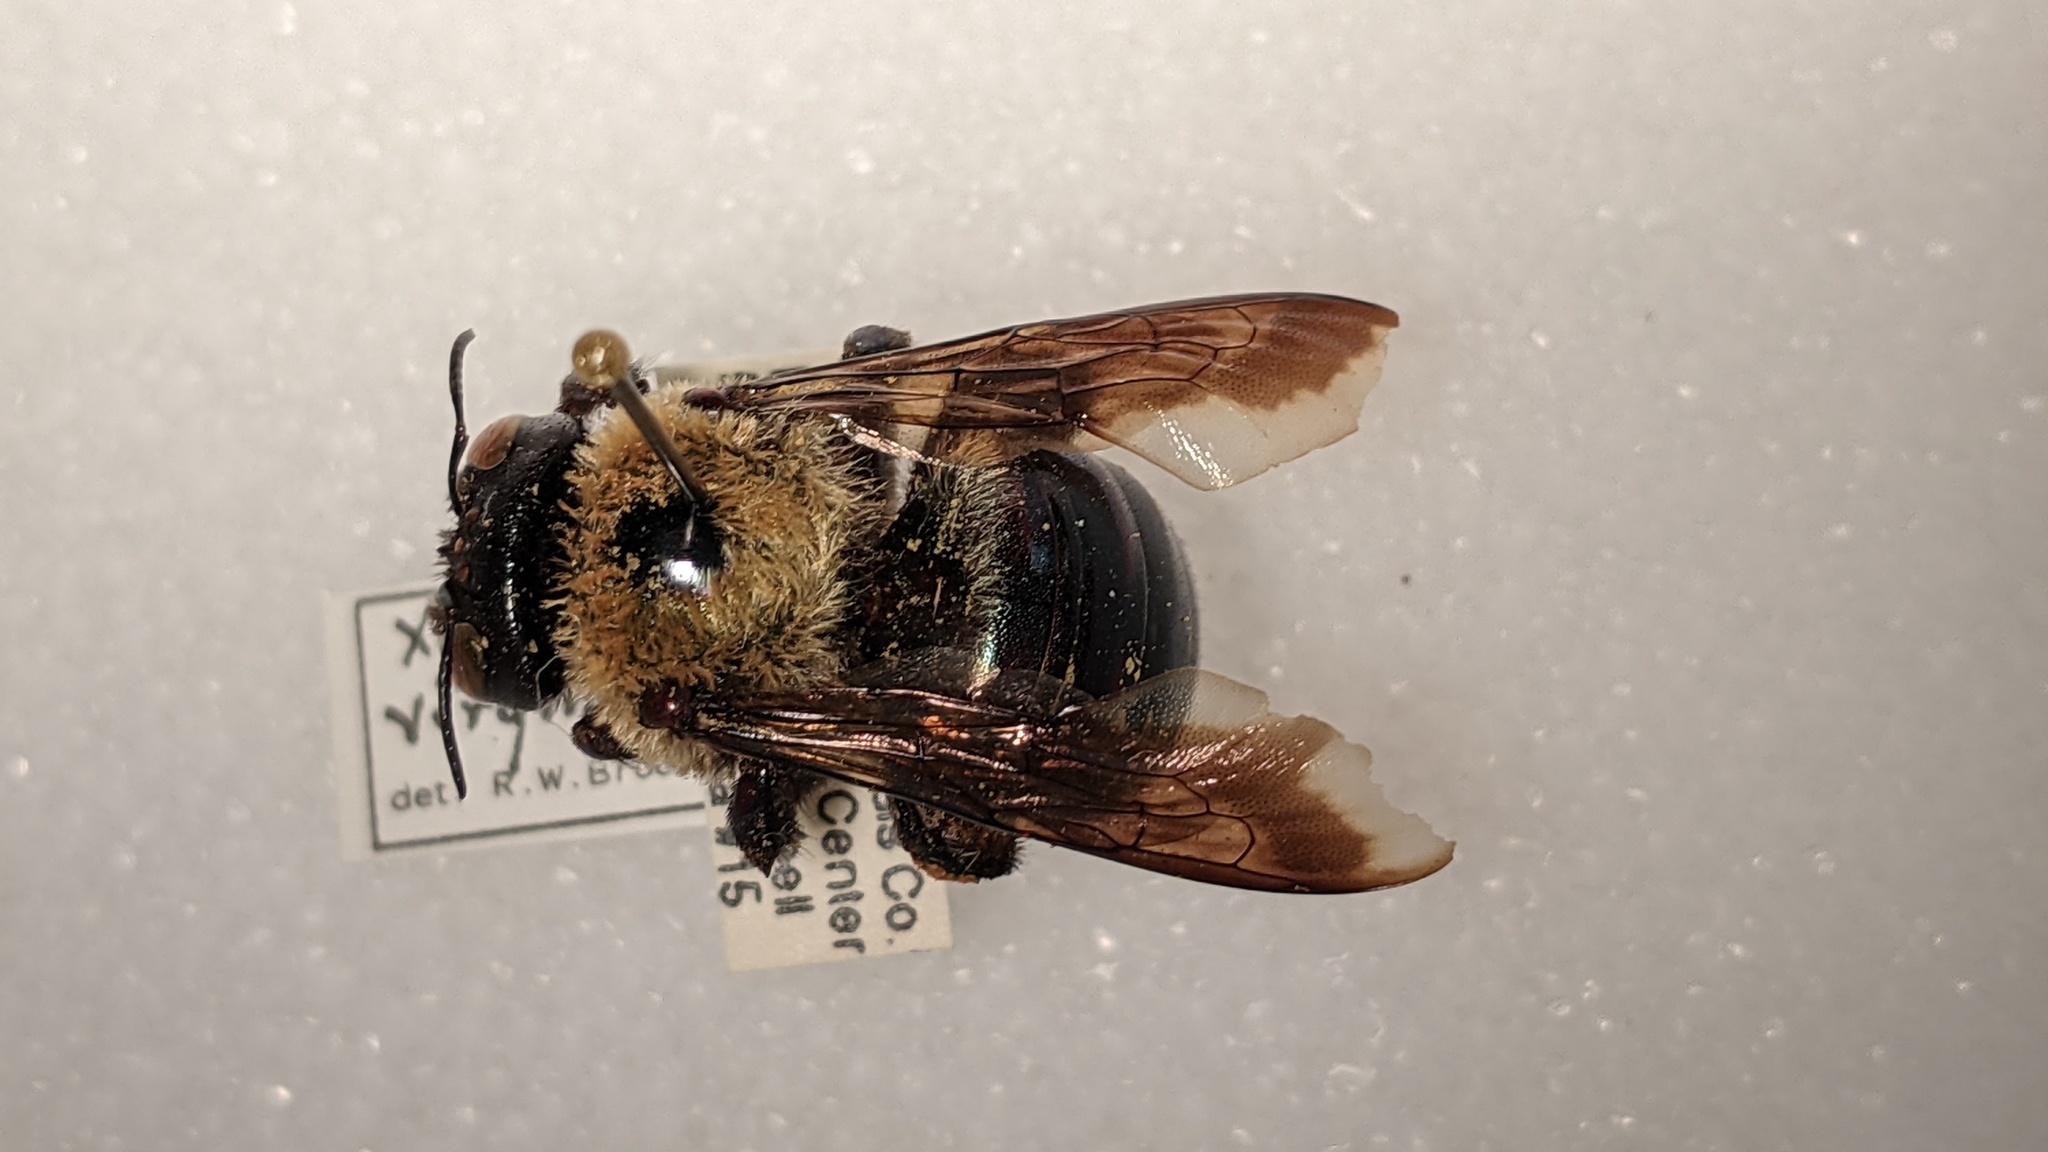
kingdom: Animalia
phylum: Arthropoda
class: Insecta
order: Hymenoptera
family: Apidae
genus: Xylocopa
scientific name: Xylocopa virginica
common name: Carpenter bee
